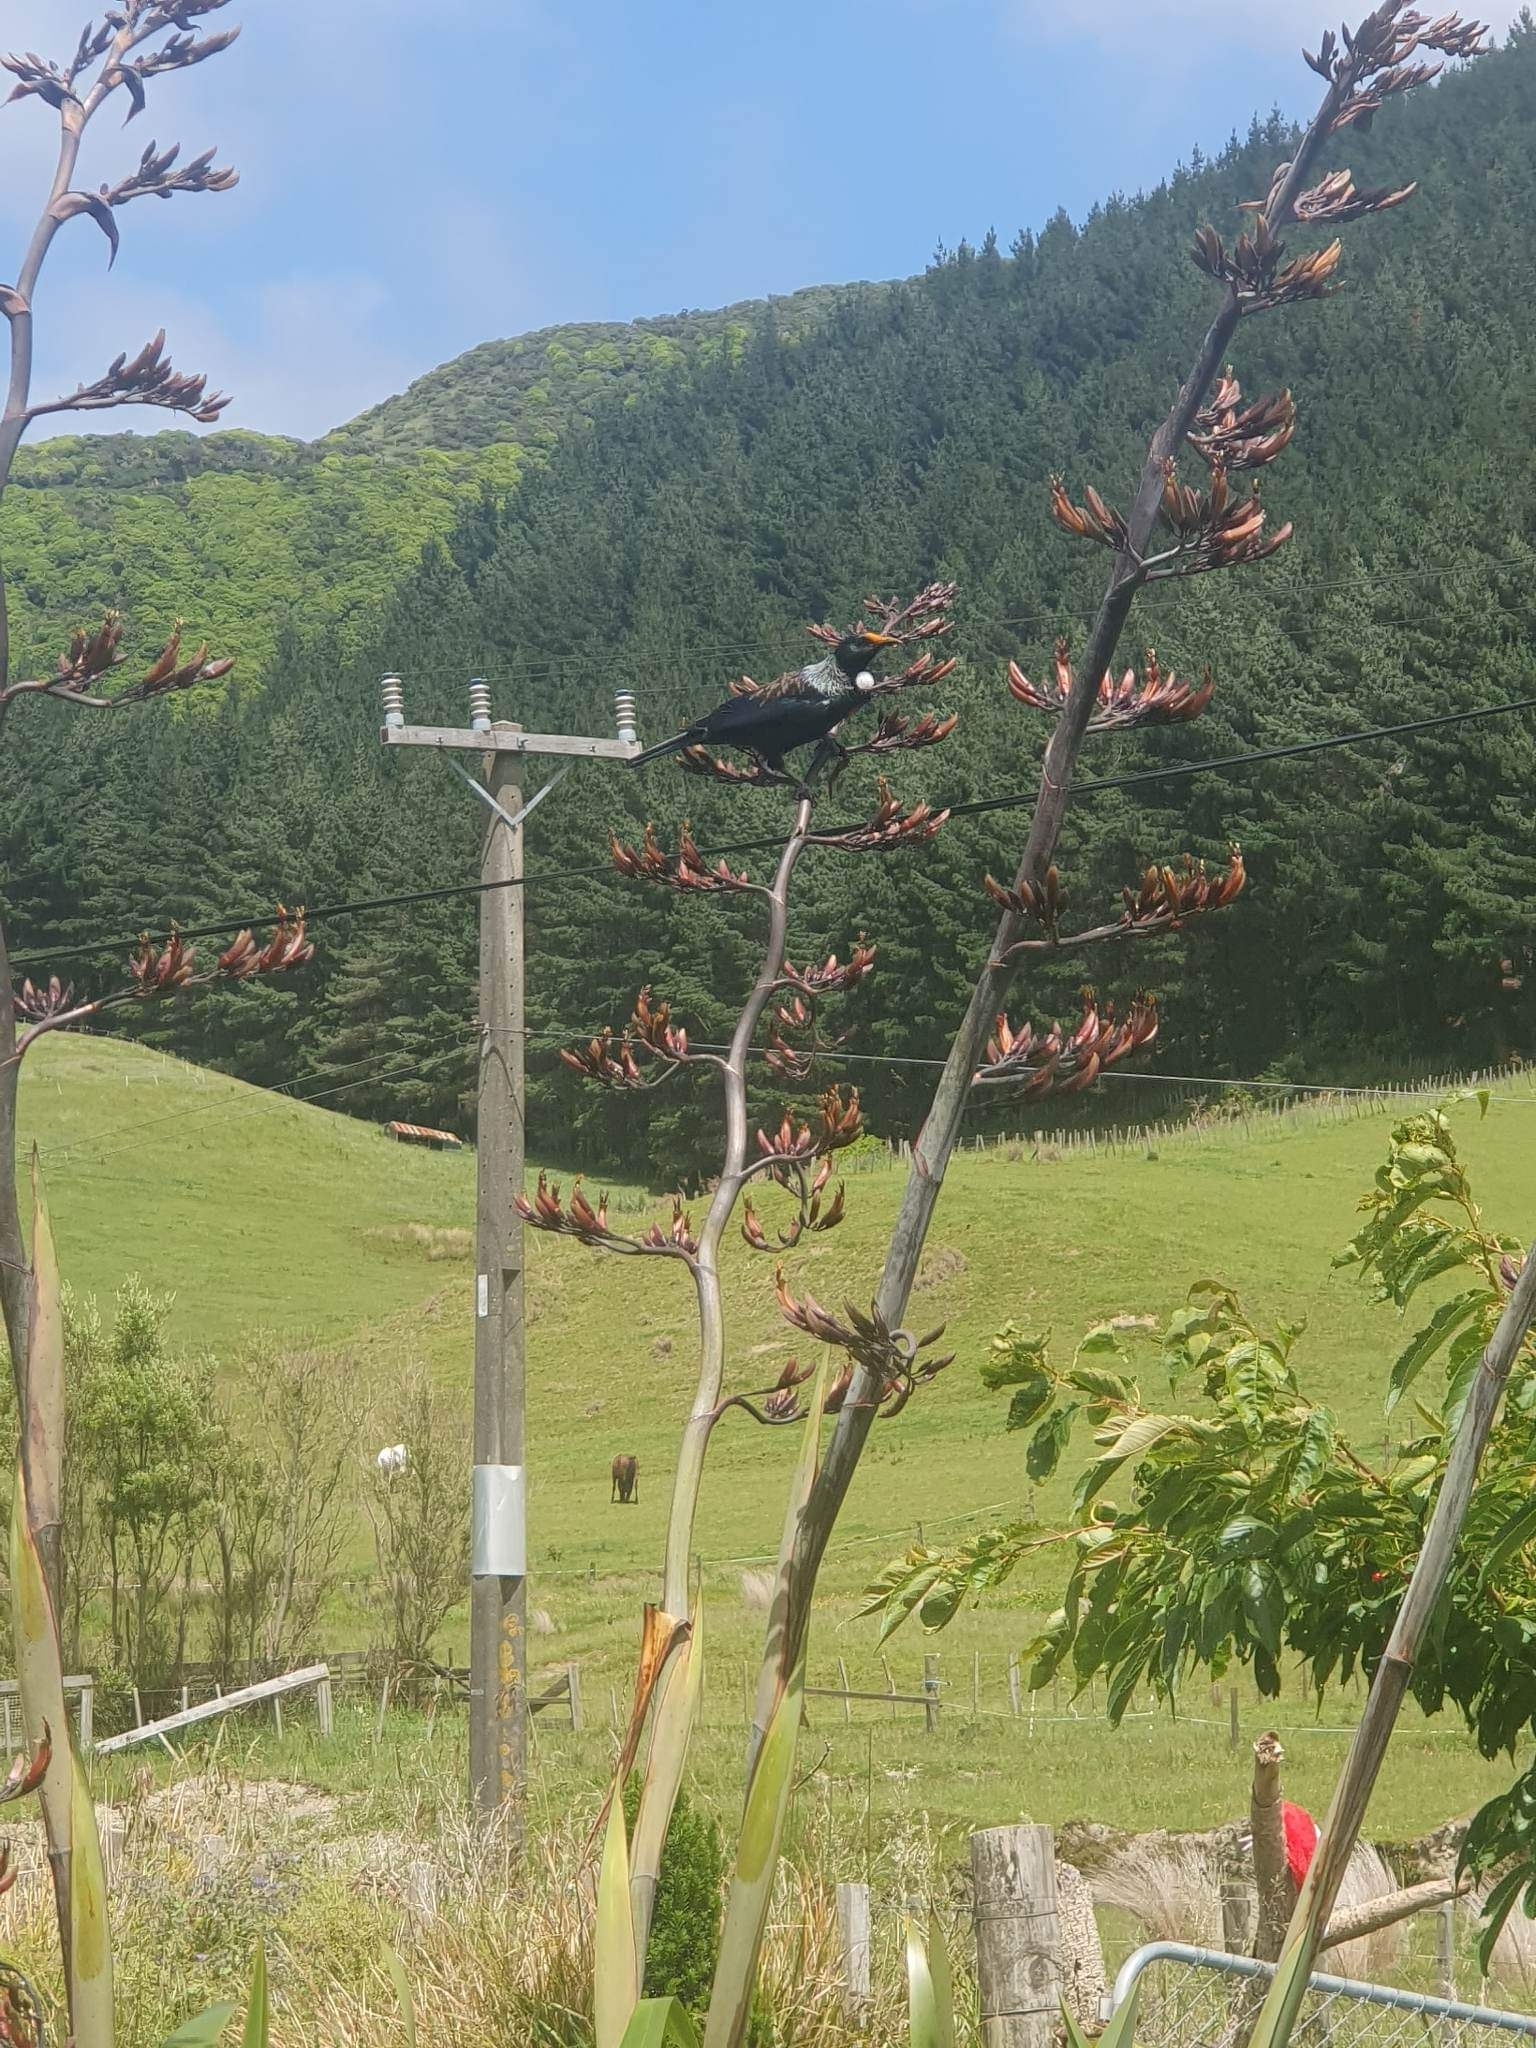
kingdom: Animalia
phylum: Chordata
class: Aves
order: Passeriformes
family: Meliphagidae
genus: Prosthemadera
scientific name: Prosthemadera novaeseelandiae
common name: Tui
